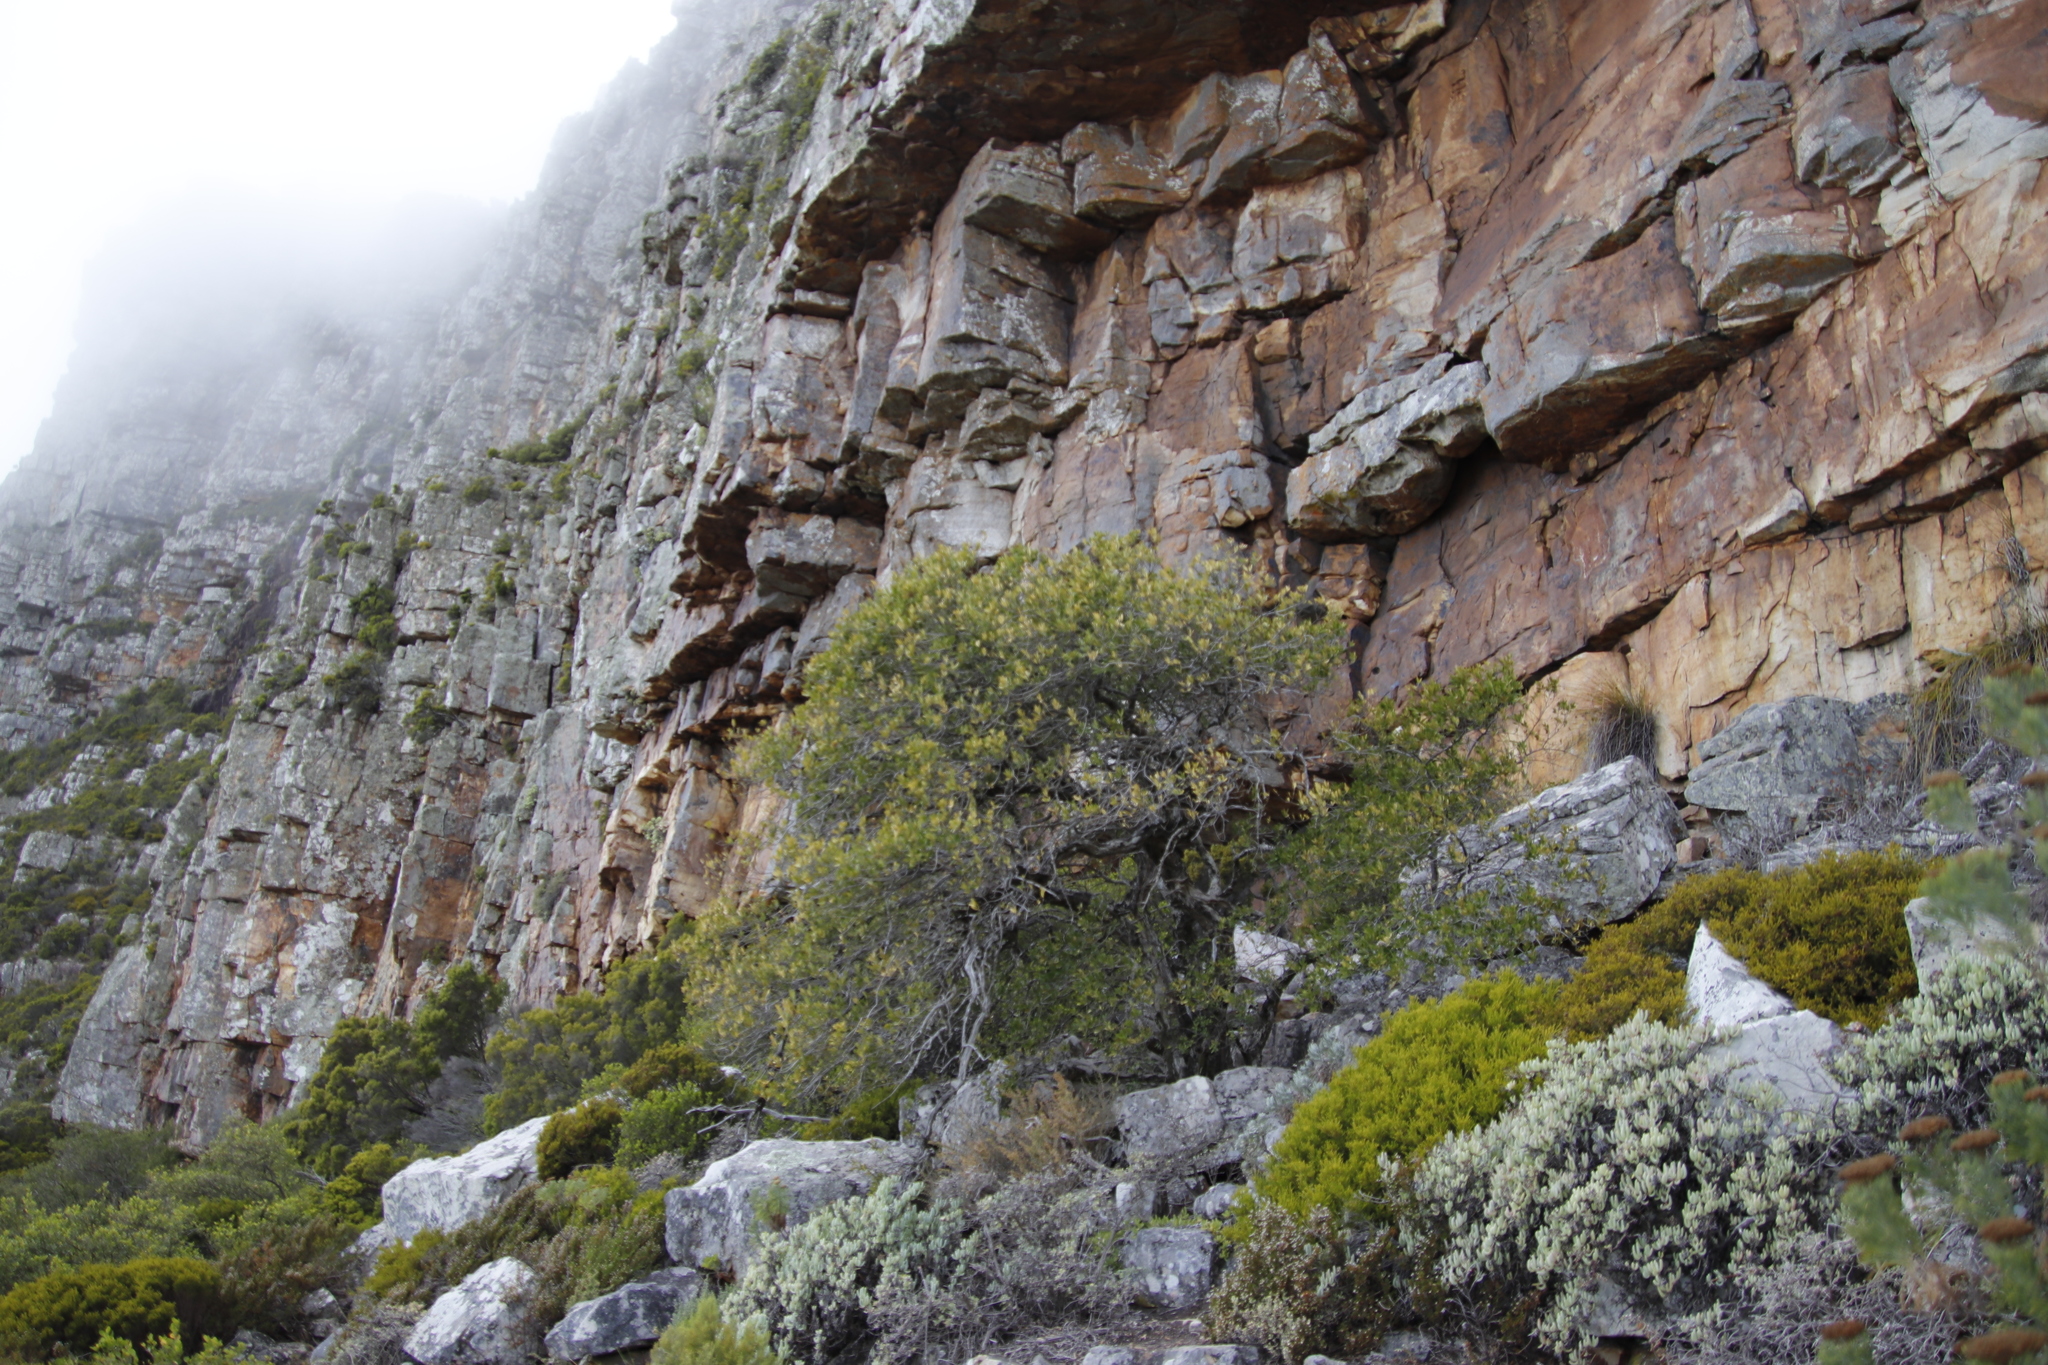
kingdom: Plantae
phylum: Tracheophyta
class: Magnoliopsida
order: Lamiales
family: Oleaceae
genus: Olea
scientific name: Olea europaea
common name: Olive
